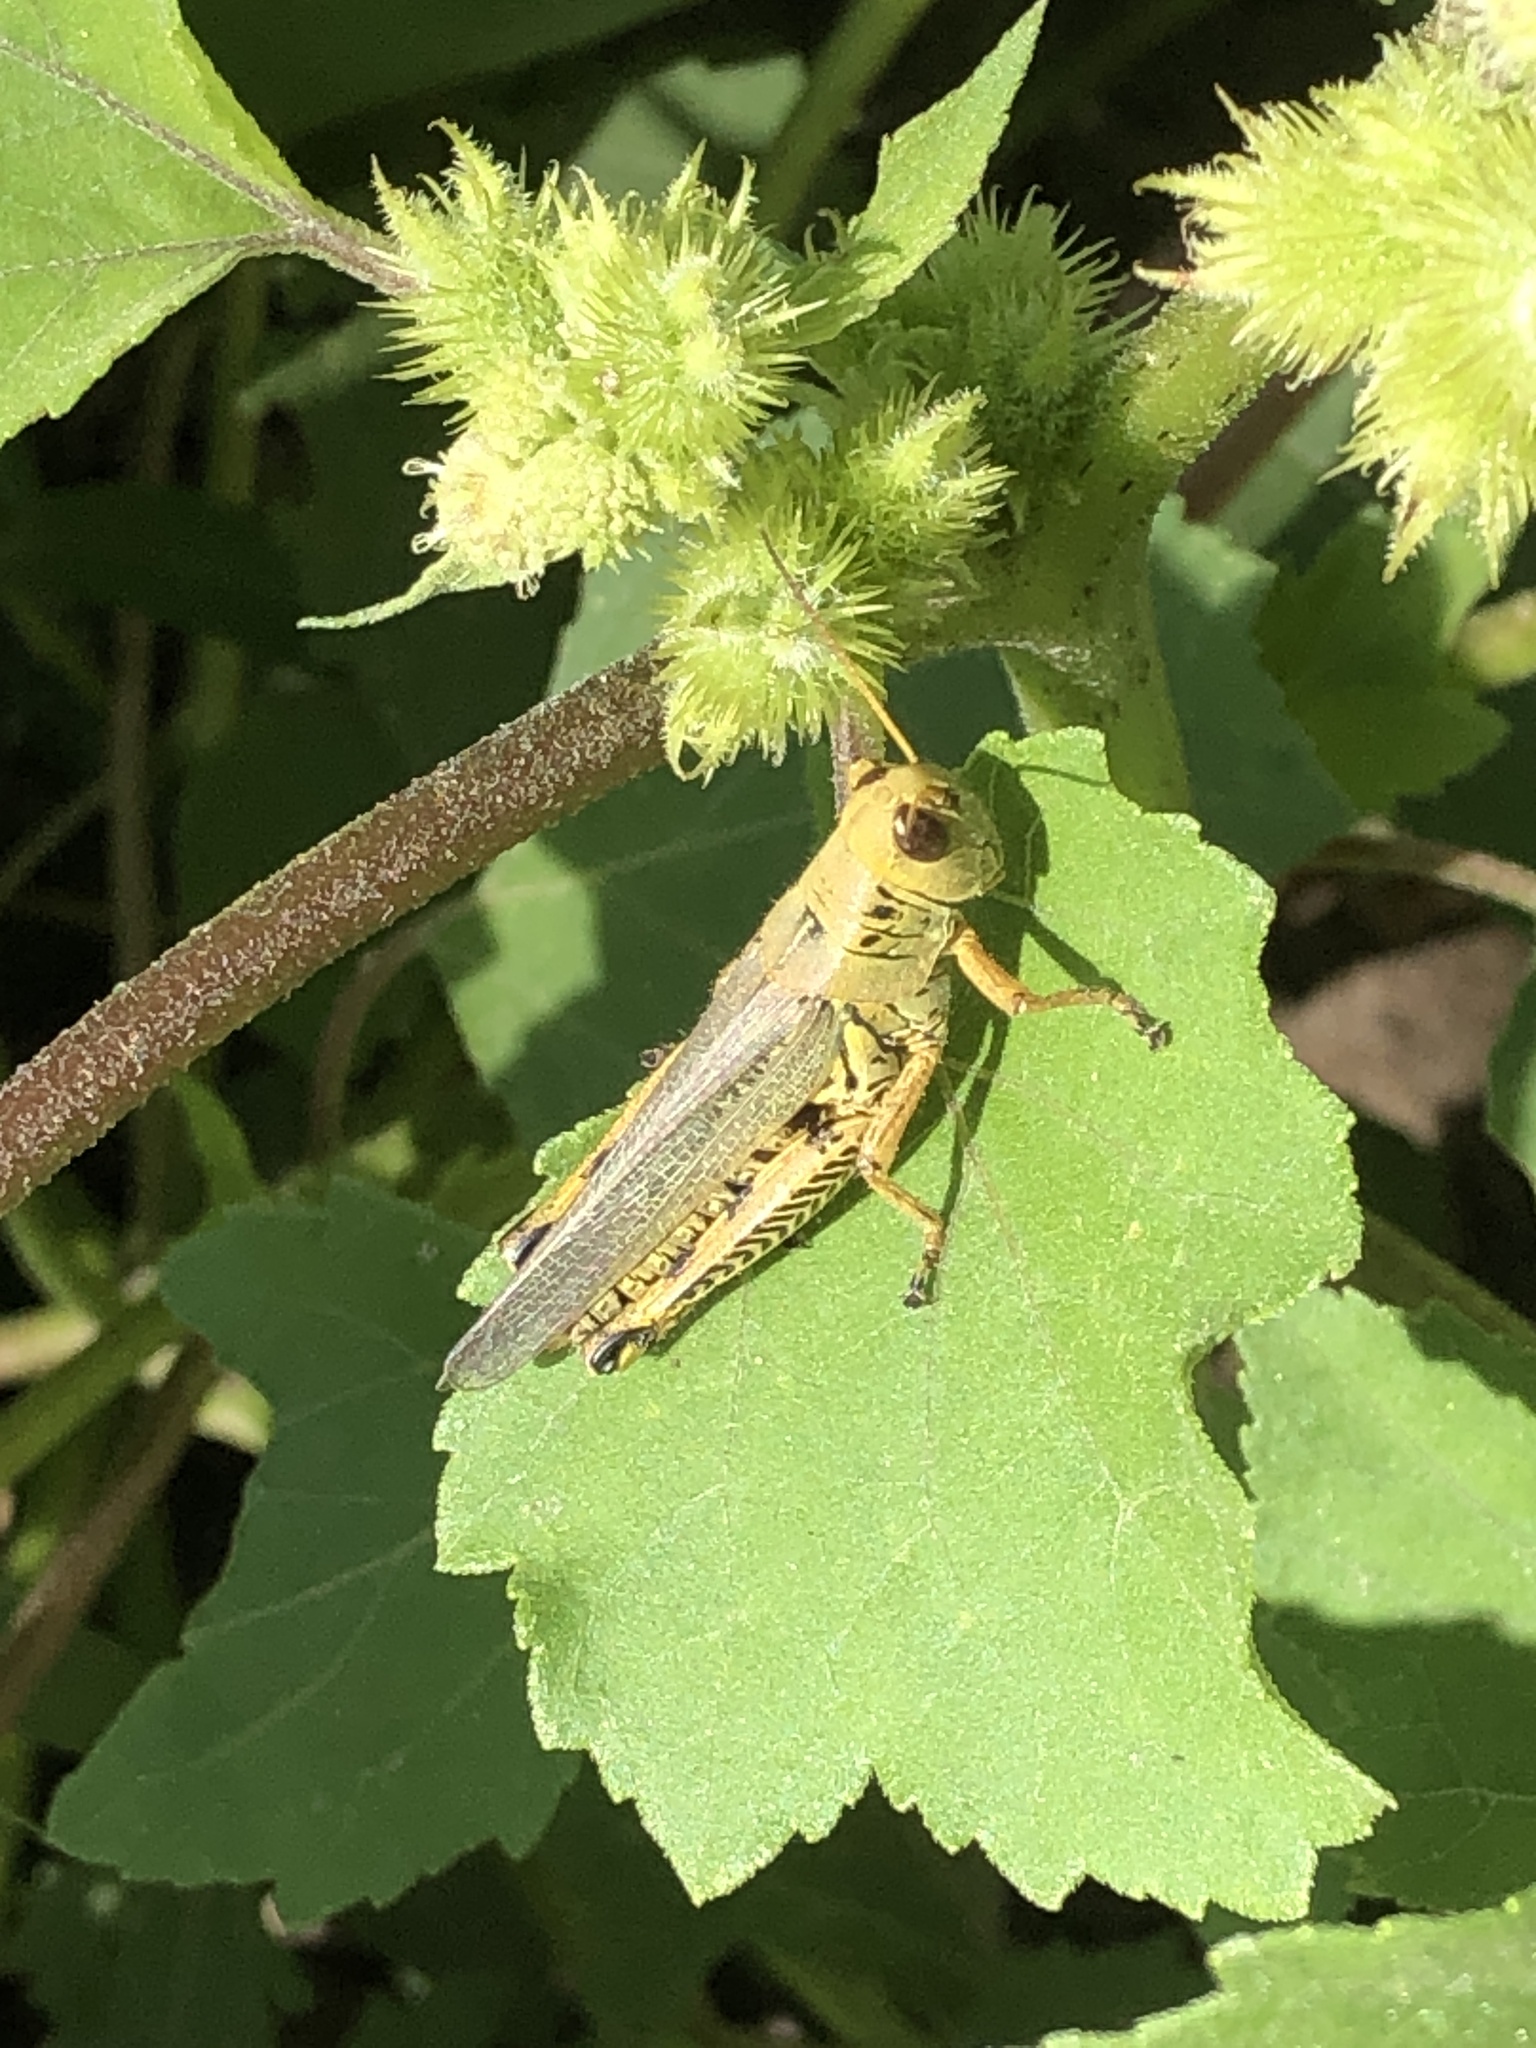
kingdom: Animalia
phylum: Arthropoda
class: Insecta
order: Orthoptera
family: Acrididae
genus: Melanoplus
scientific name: Melanoplus differentialis
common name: Differential grasshopper
